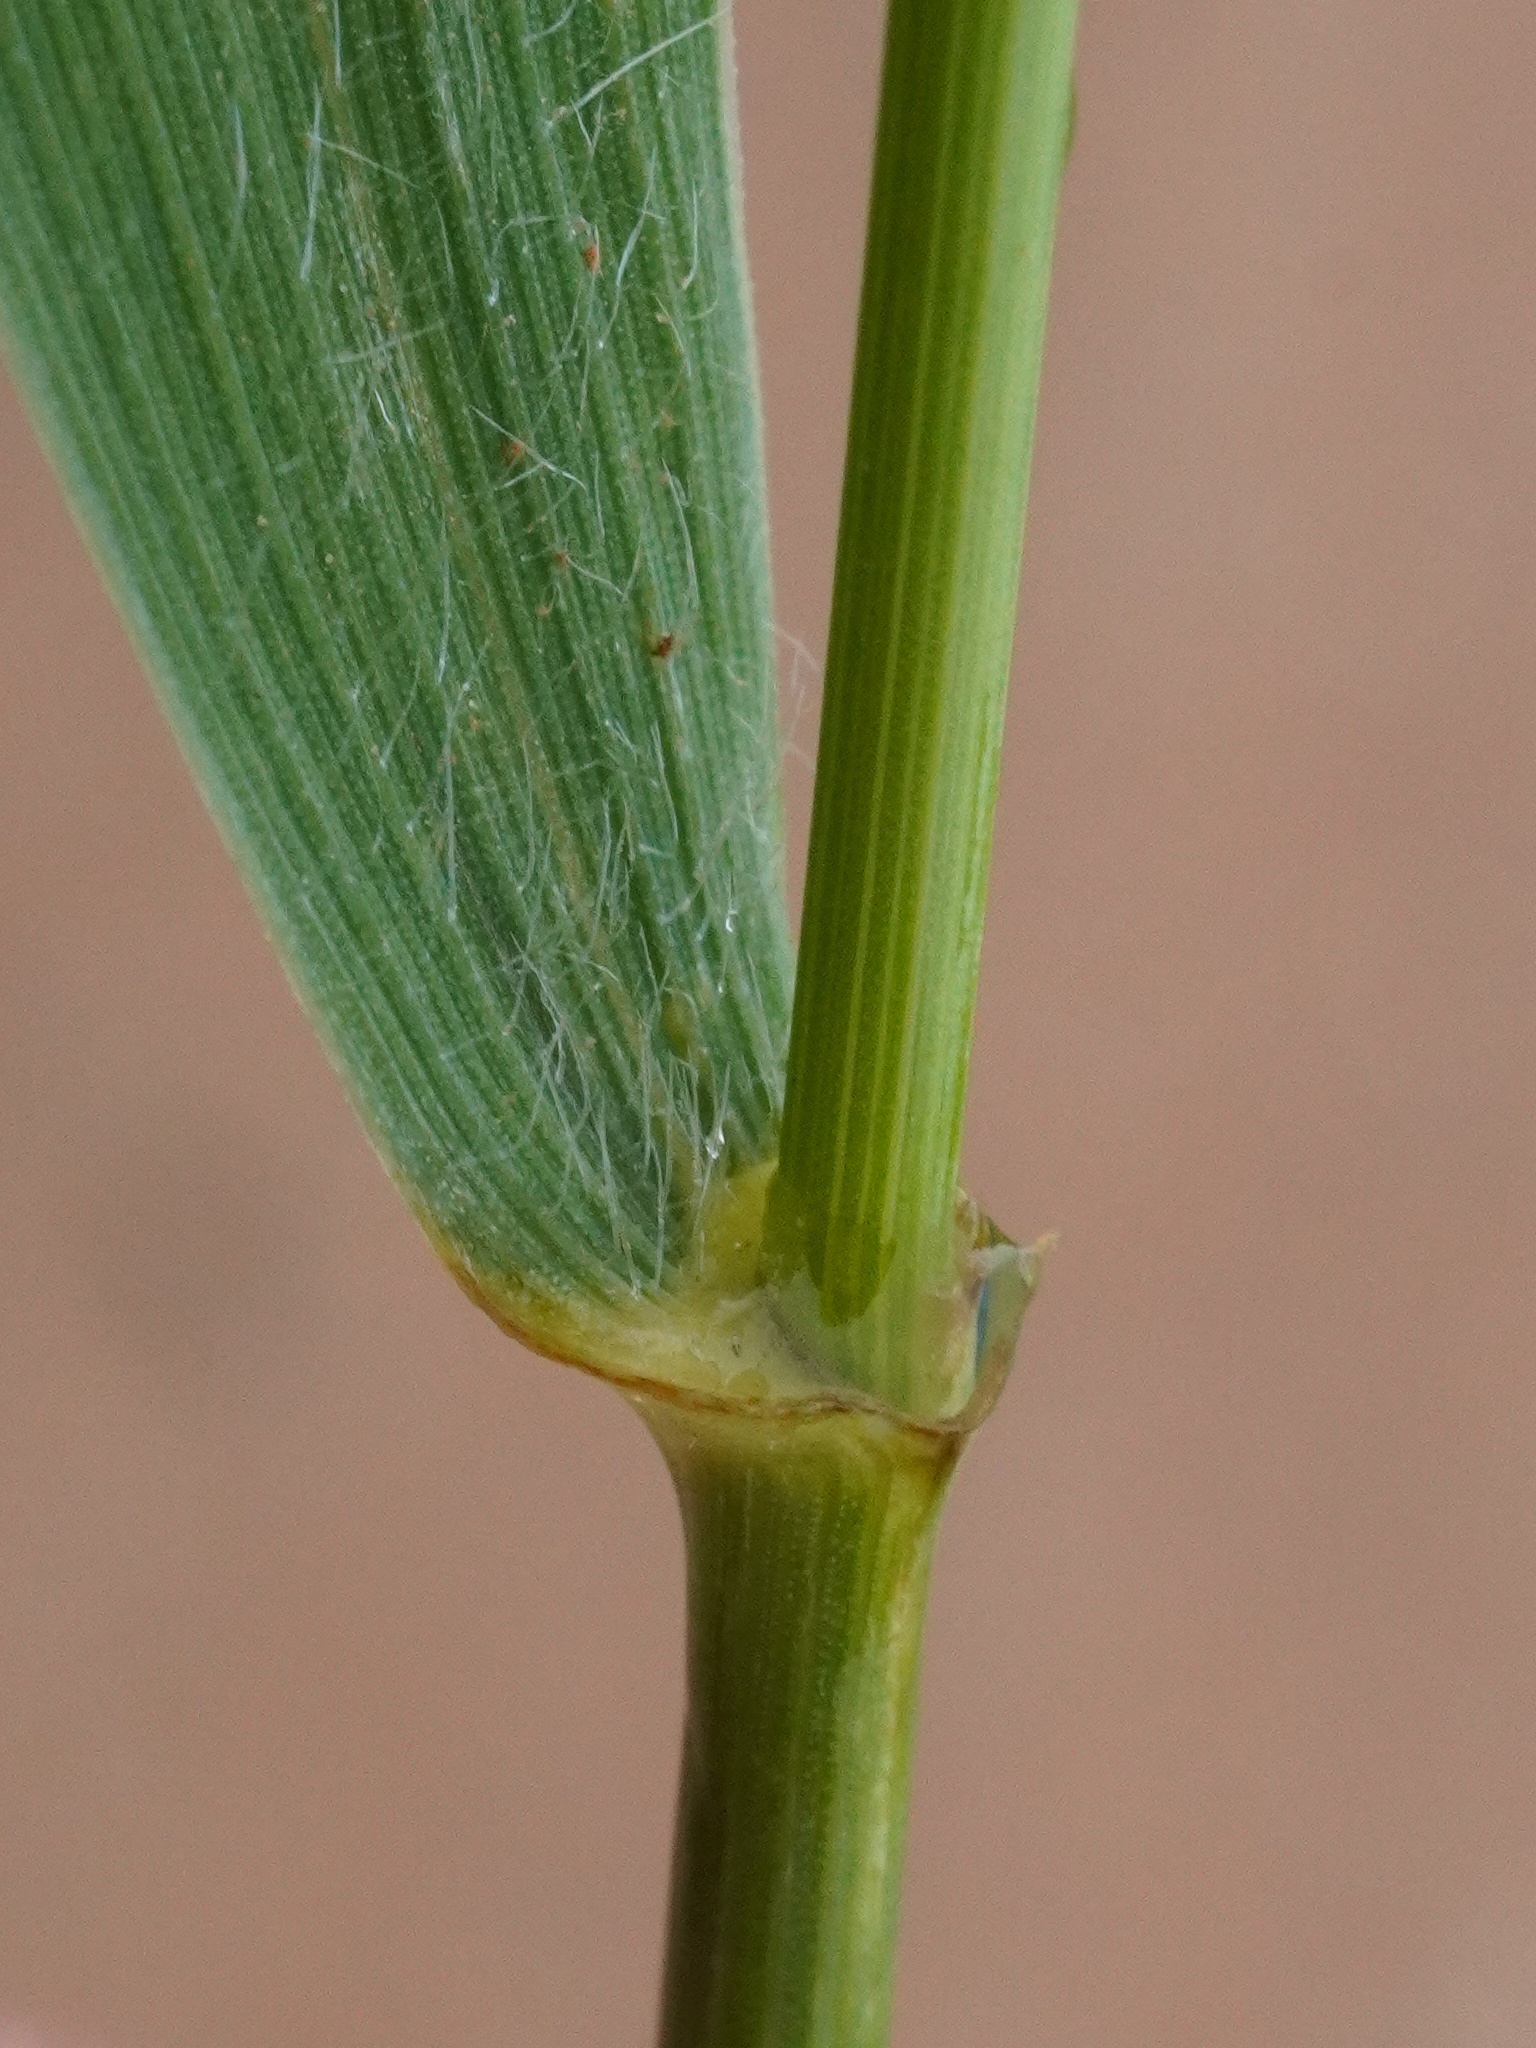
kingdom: Plantae
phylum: Tracheophyta
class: Liliopsida
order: Poales
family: Poaceae
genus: Elymus
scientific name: Elymus repens
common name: Quackgrass
